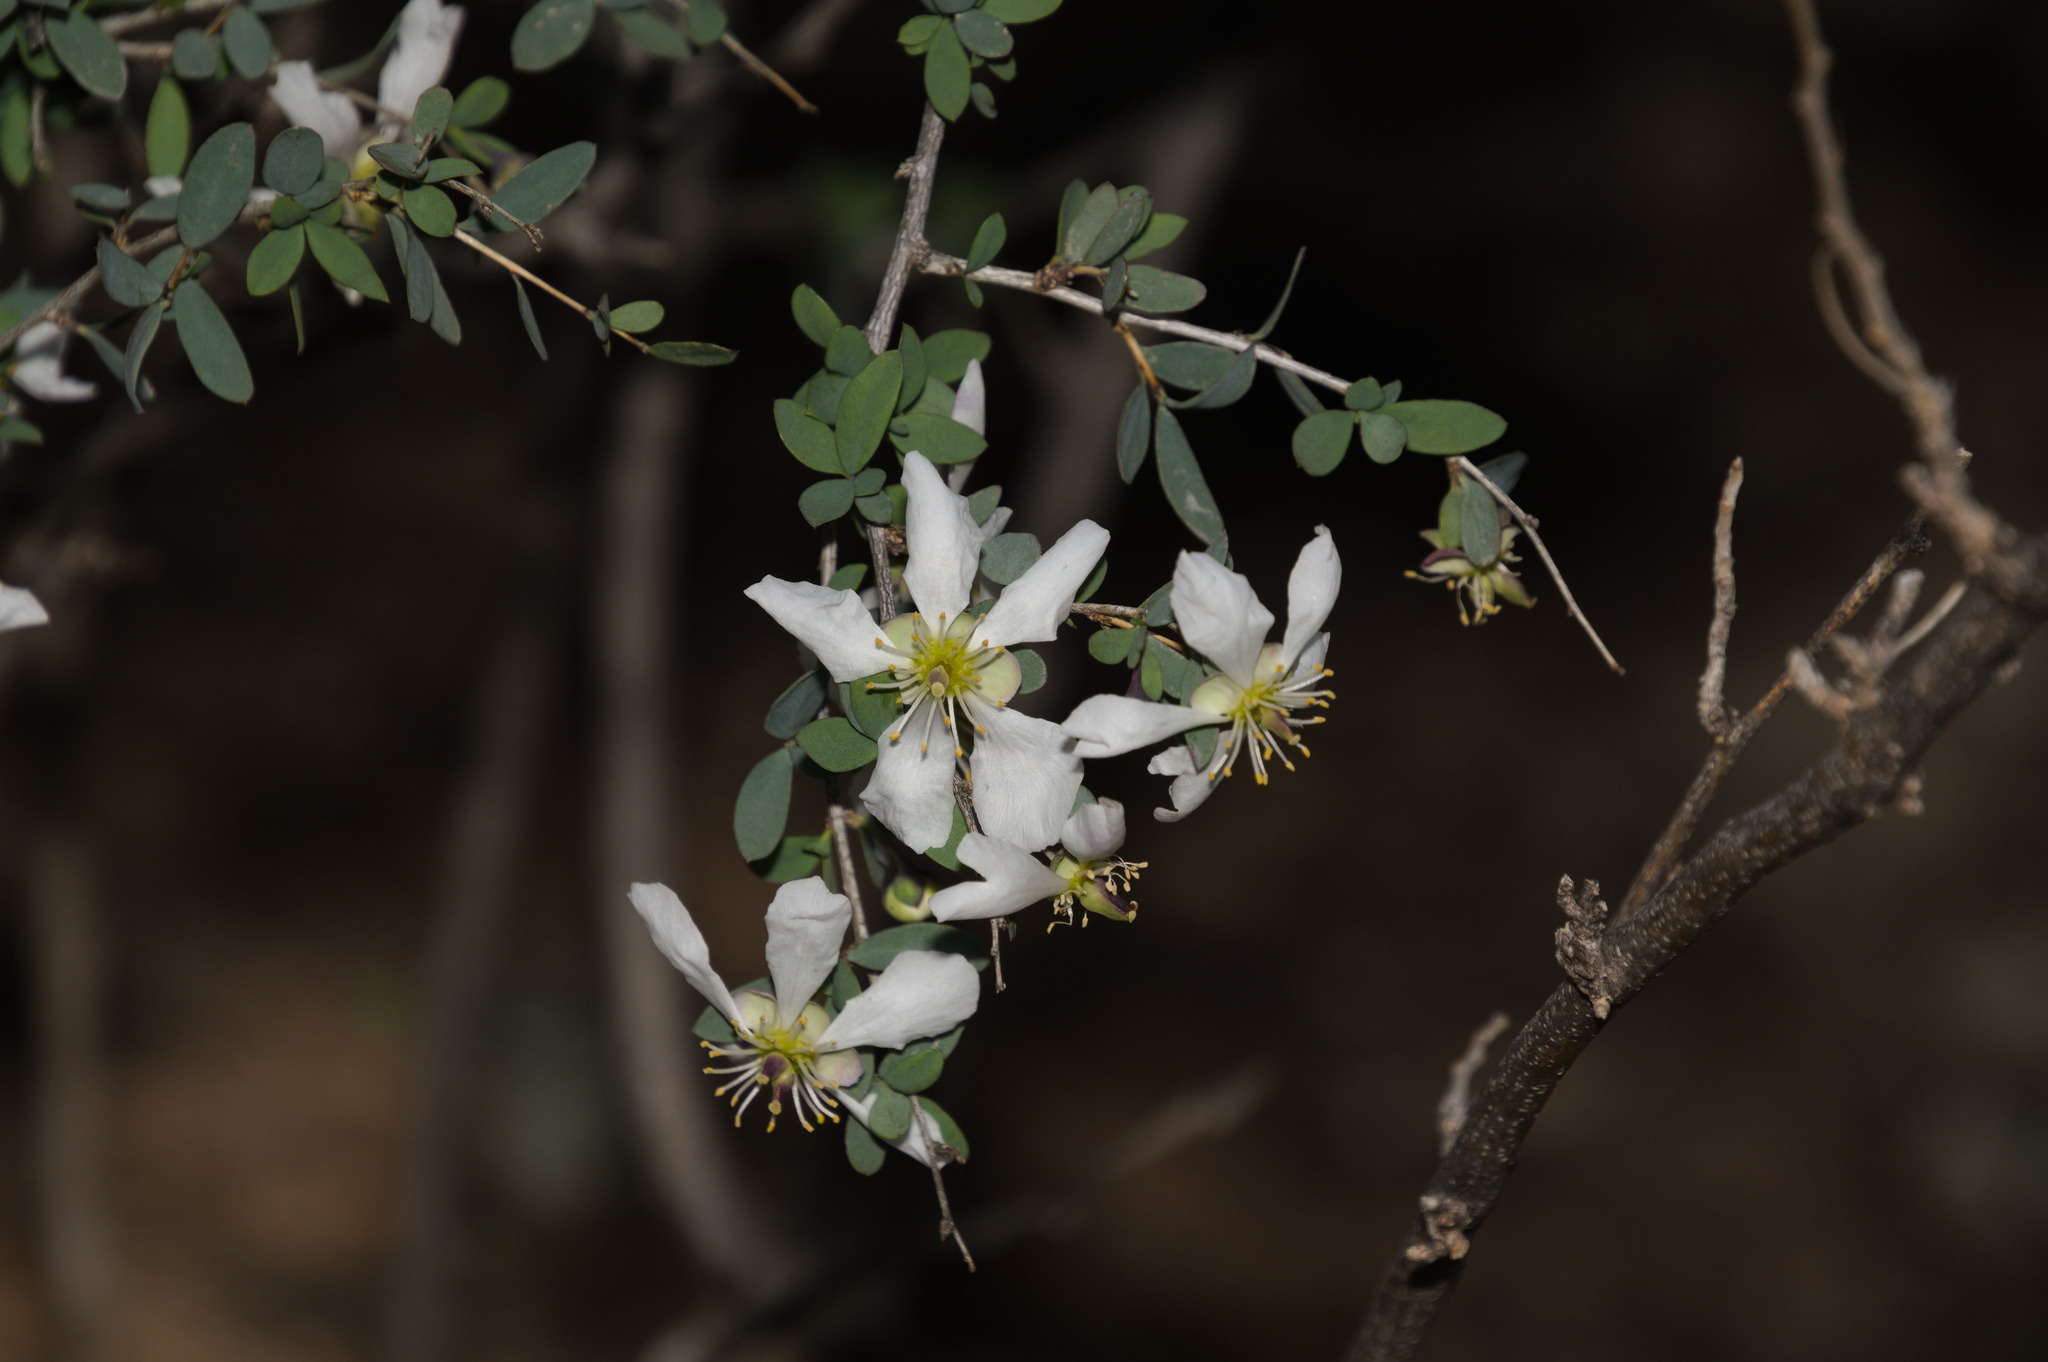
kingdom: Plantae
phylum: Tracheophyta
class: Magnoliopsida
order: Crossosomatales
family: Crossosomataceae
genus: Crossosoma
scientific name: Crossosoma bigelovii
